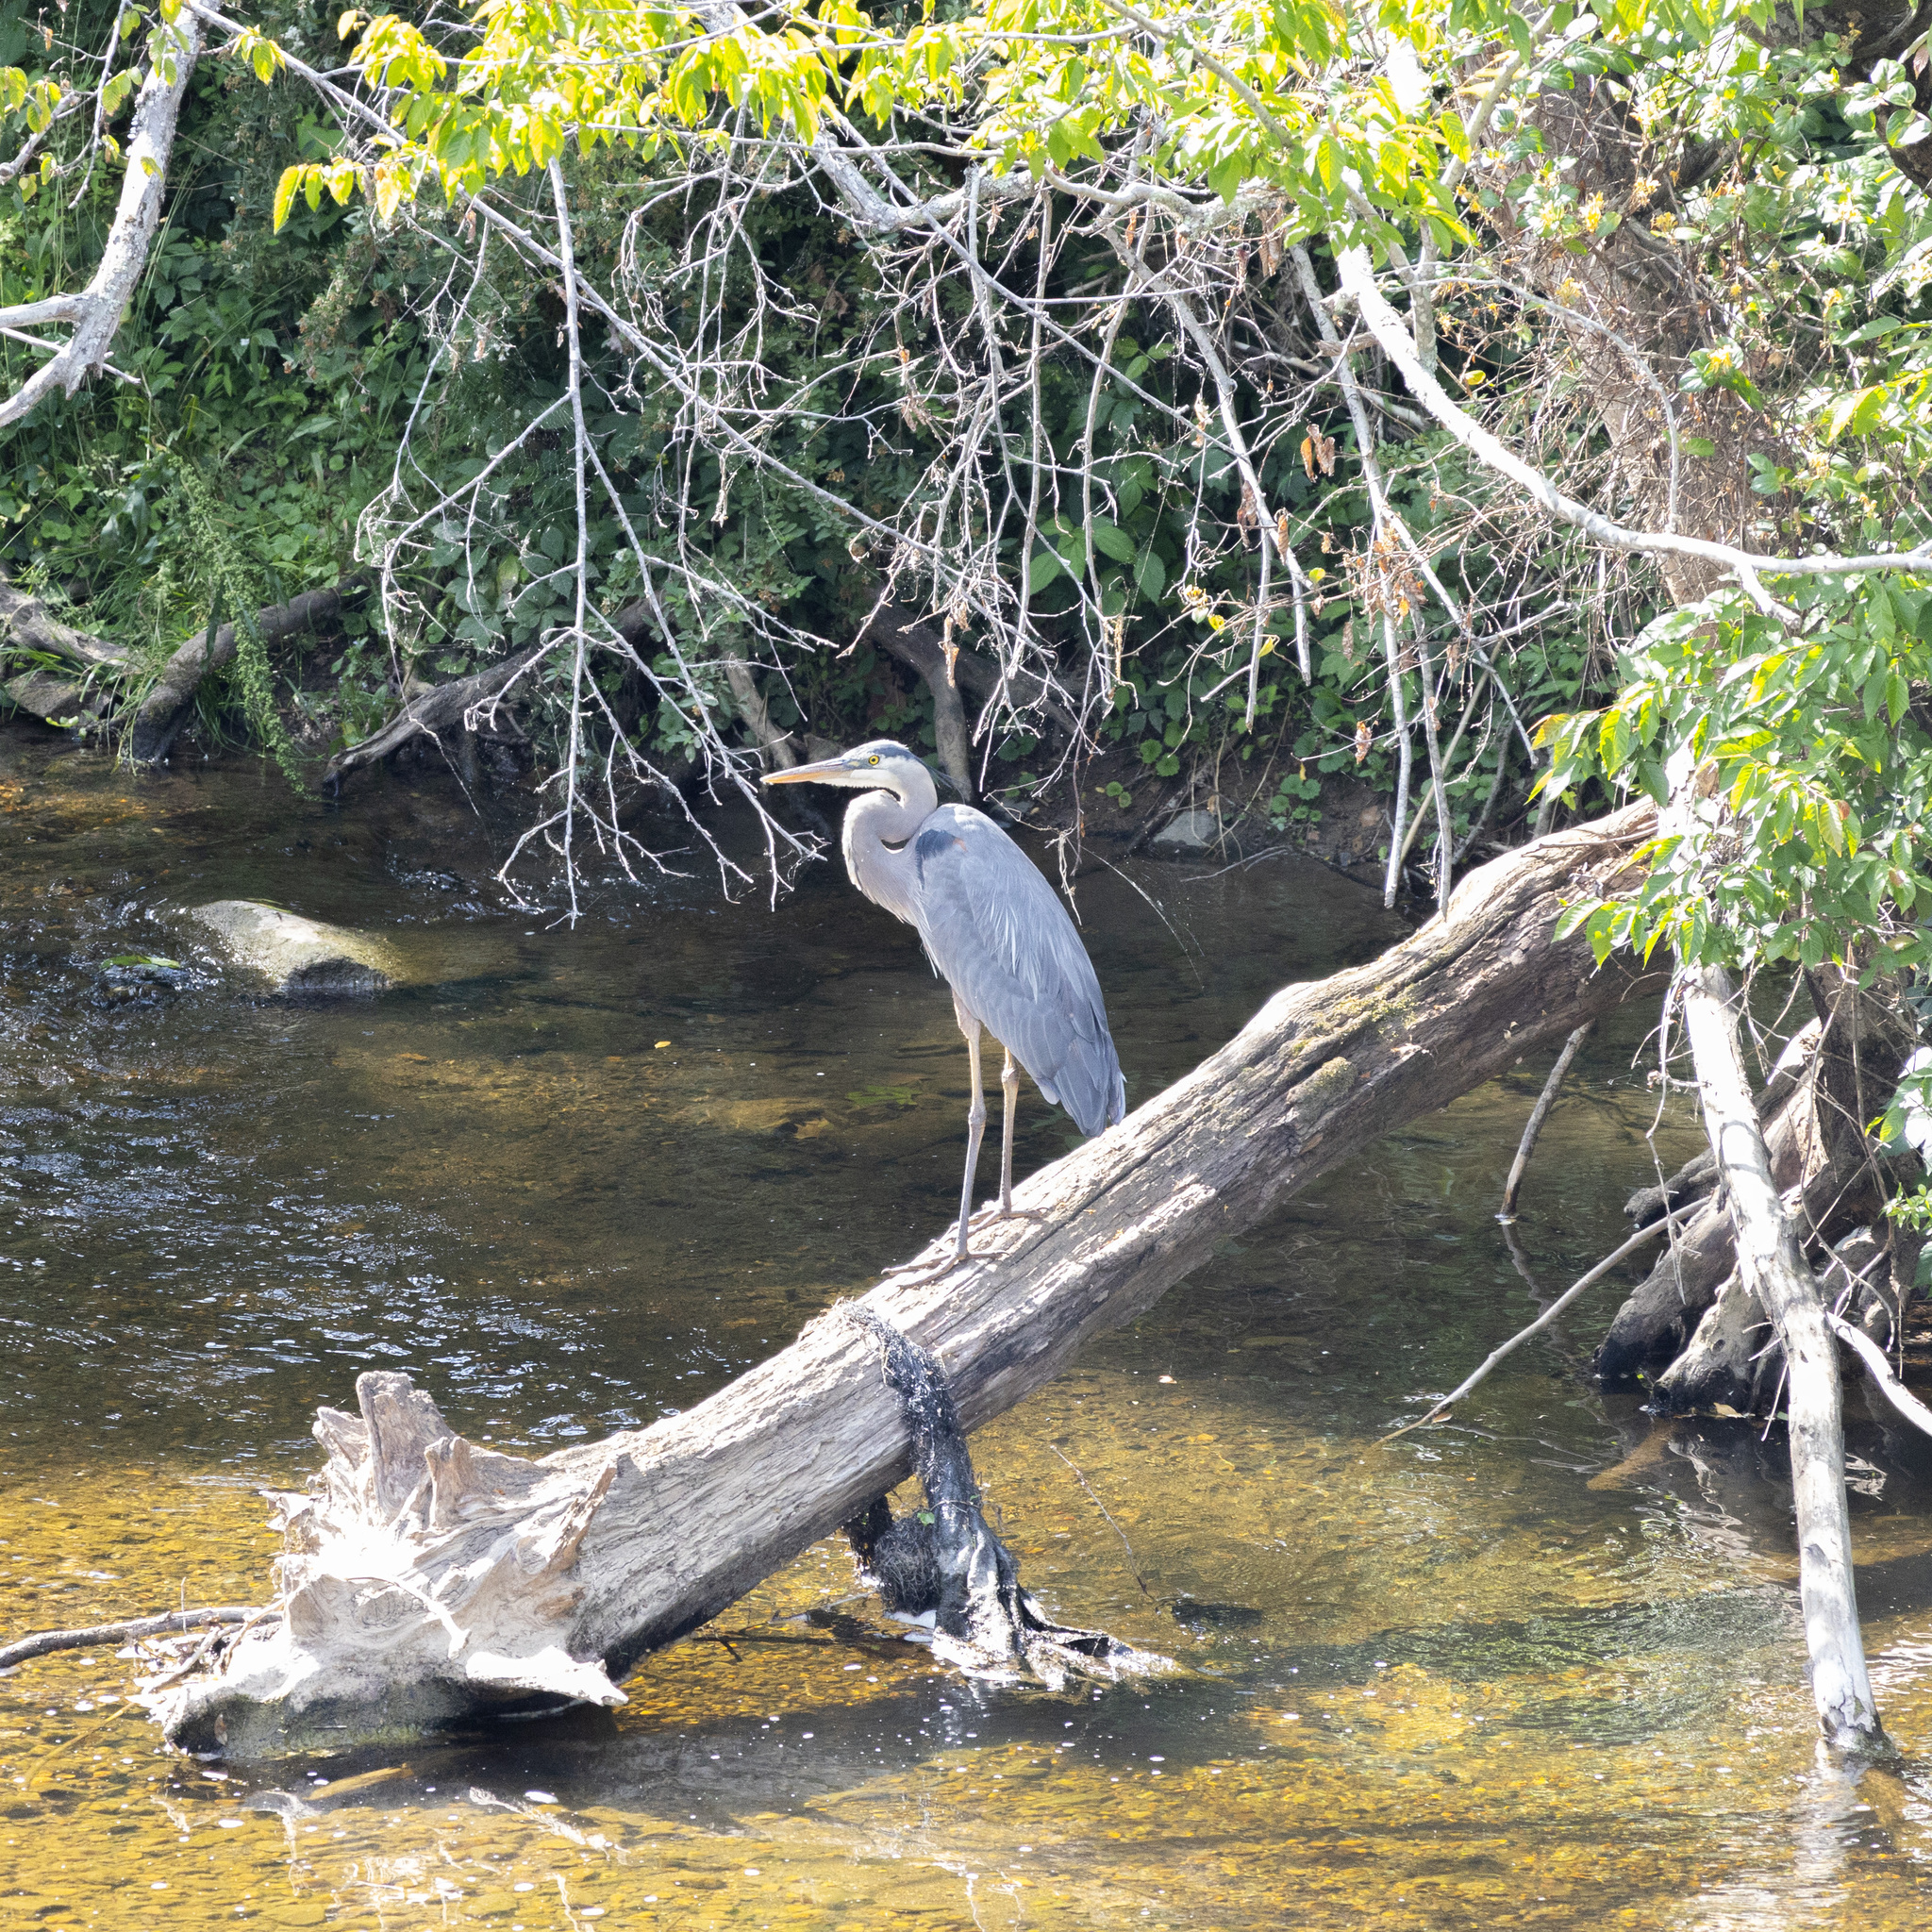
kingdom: Animalia
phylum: Chordata
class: Aves
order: Pelecaniformes
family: Ardeidae
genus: Ardea
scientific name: Ardea herodias
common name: Great blue heron
